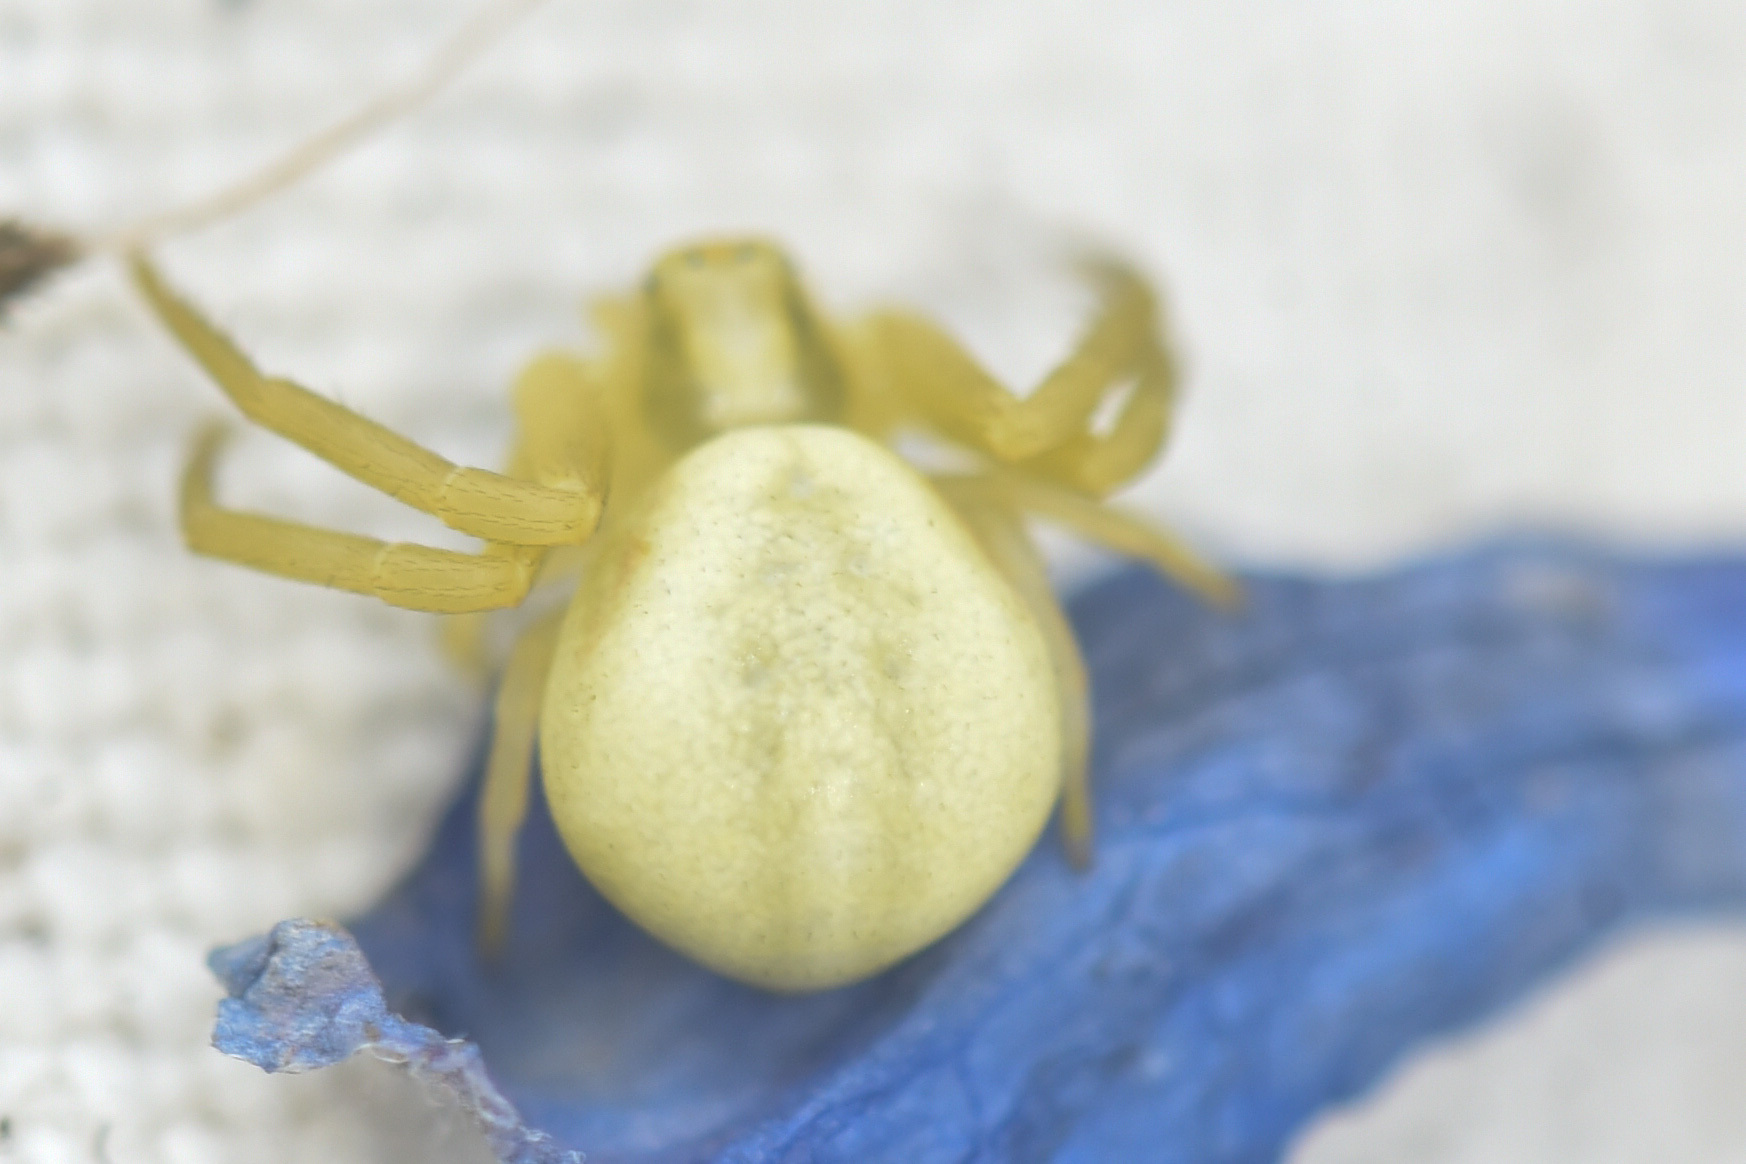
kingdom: Animalia
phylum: Arthropoda
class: Arachnida
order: Araneae
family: Thomisidae
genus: Misumena
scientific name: Misumena vatia
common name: Goldenrod crab spider
